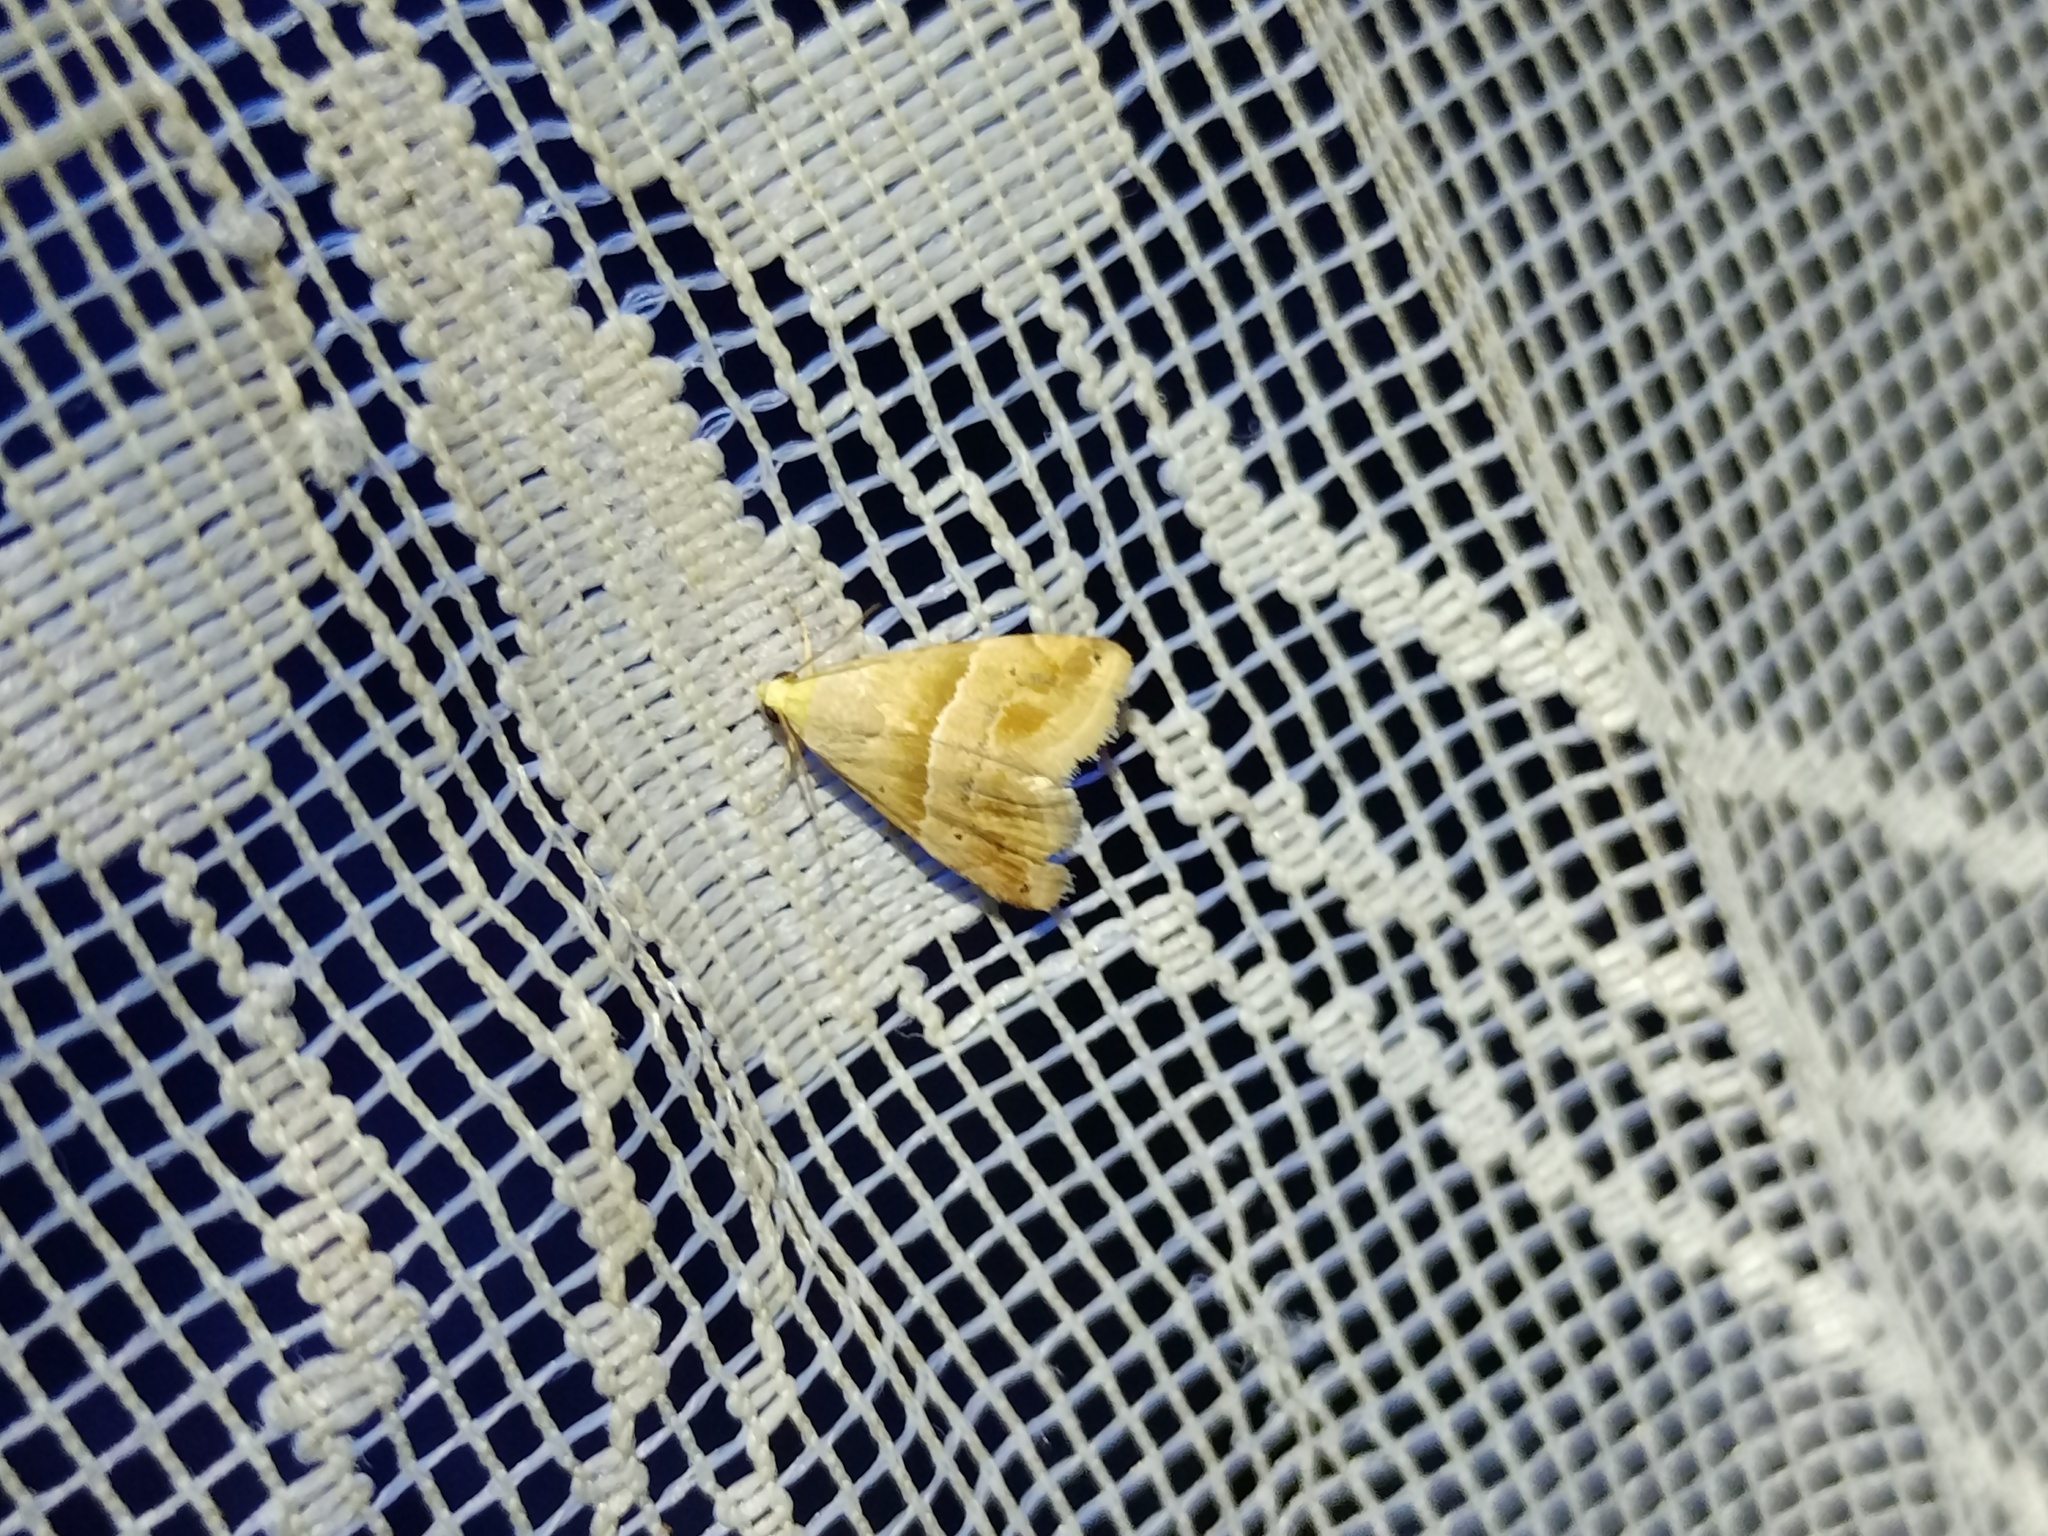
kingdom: Animalia
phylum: Arthropoda
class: Insecta
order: Lepidoptera
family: Noctuidae
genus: Eublemma
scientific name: Eublemma parva
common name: Small marbled
